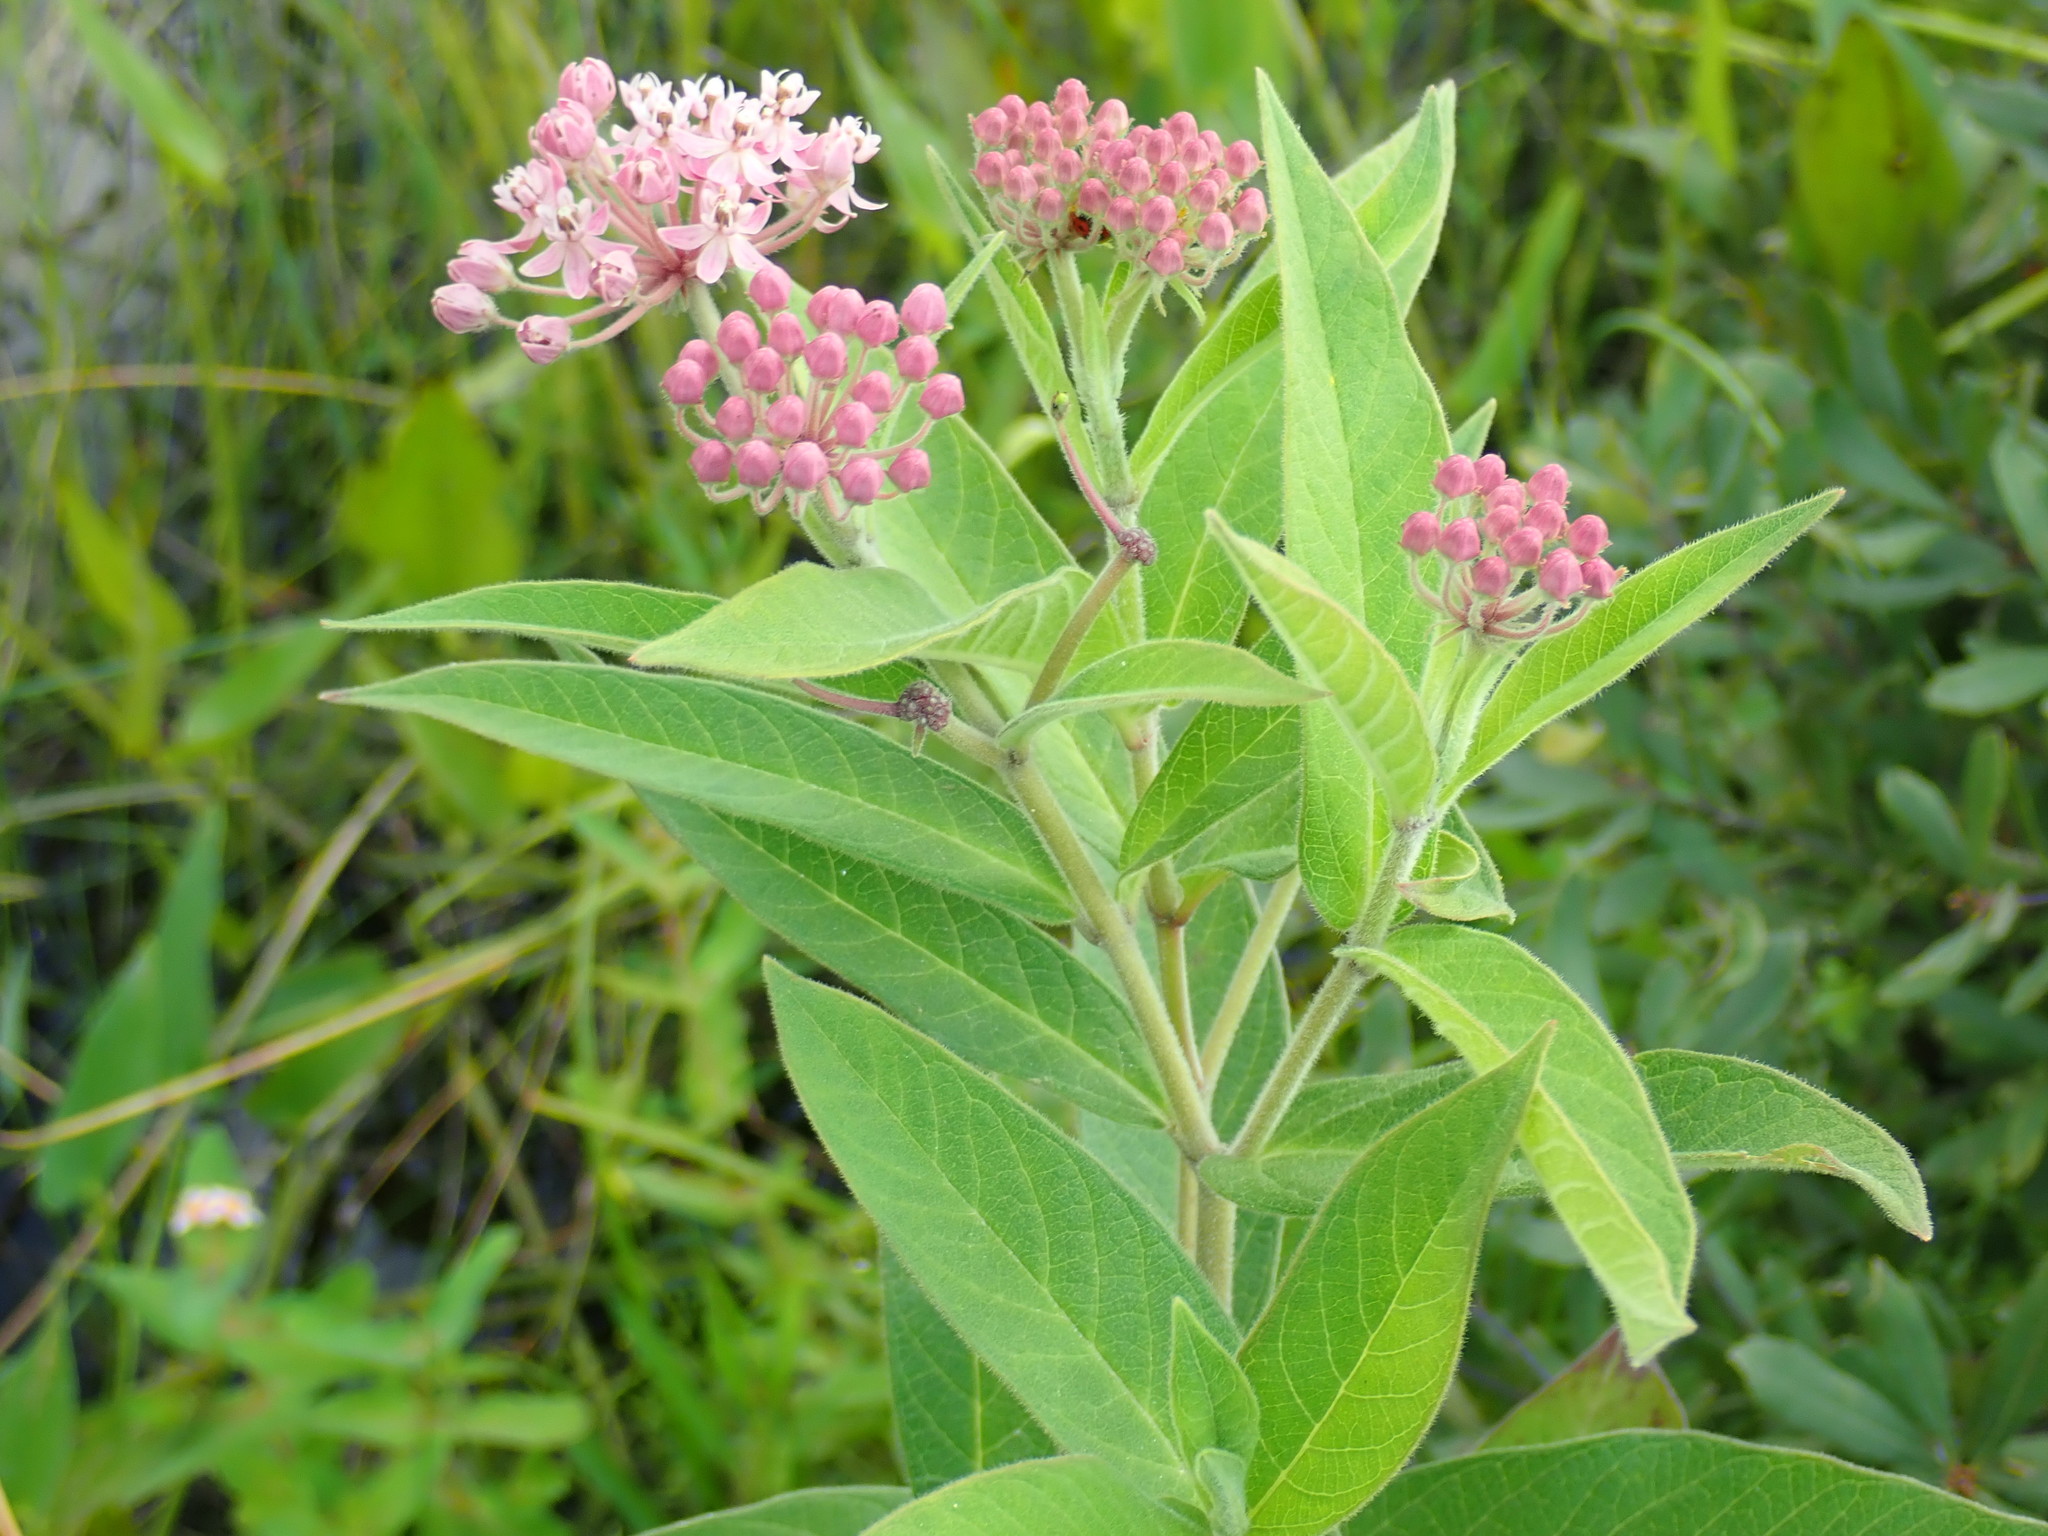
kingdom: Plantae
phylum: Tracheophyta
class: Magnoliopsida
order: Gentianales
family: Apocynaceae
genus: Asclepias
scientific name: Asclepias incarnata
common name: Swamp milkweed
